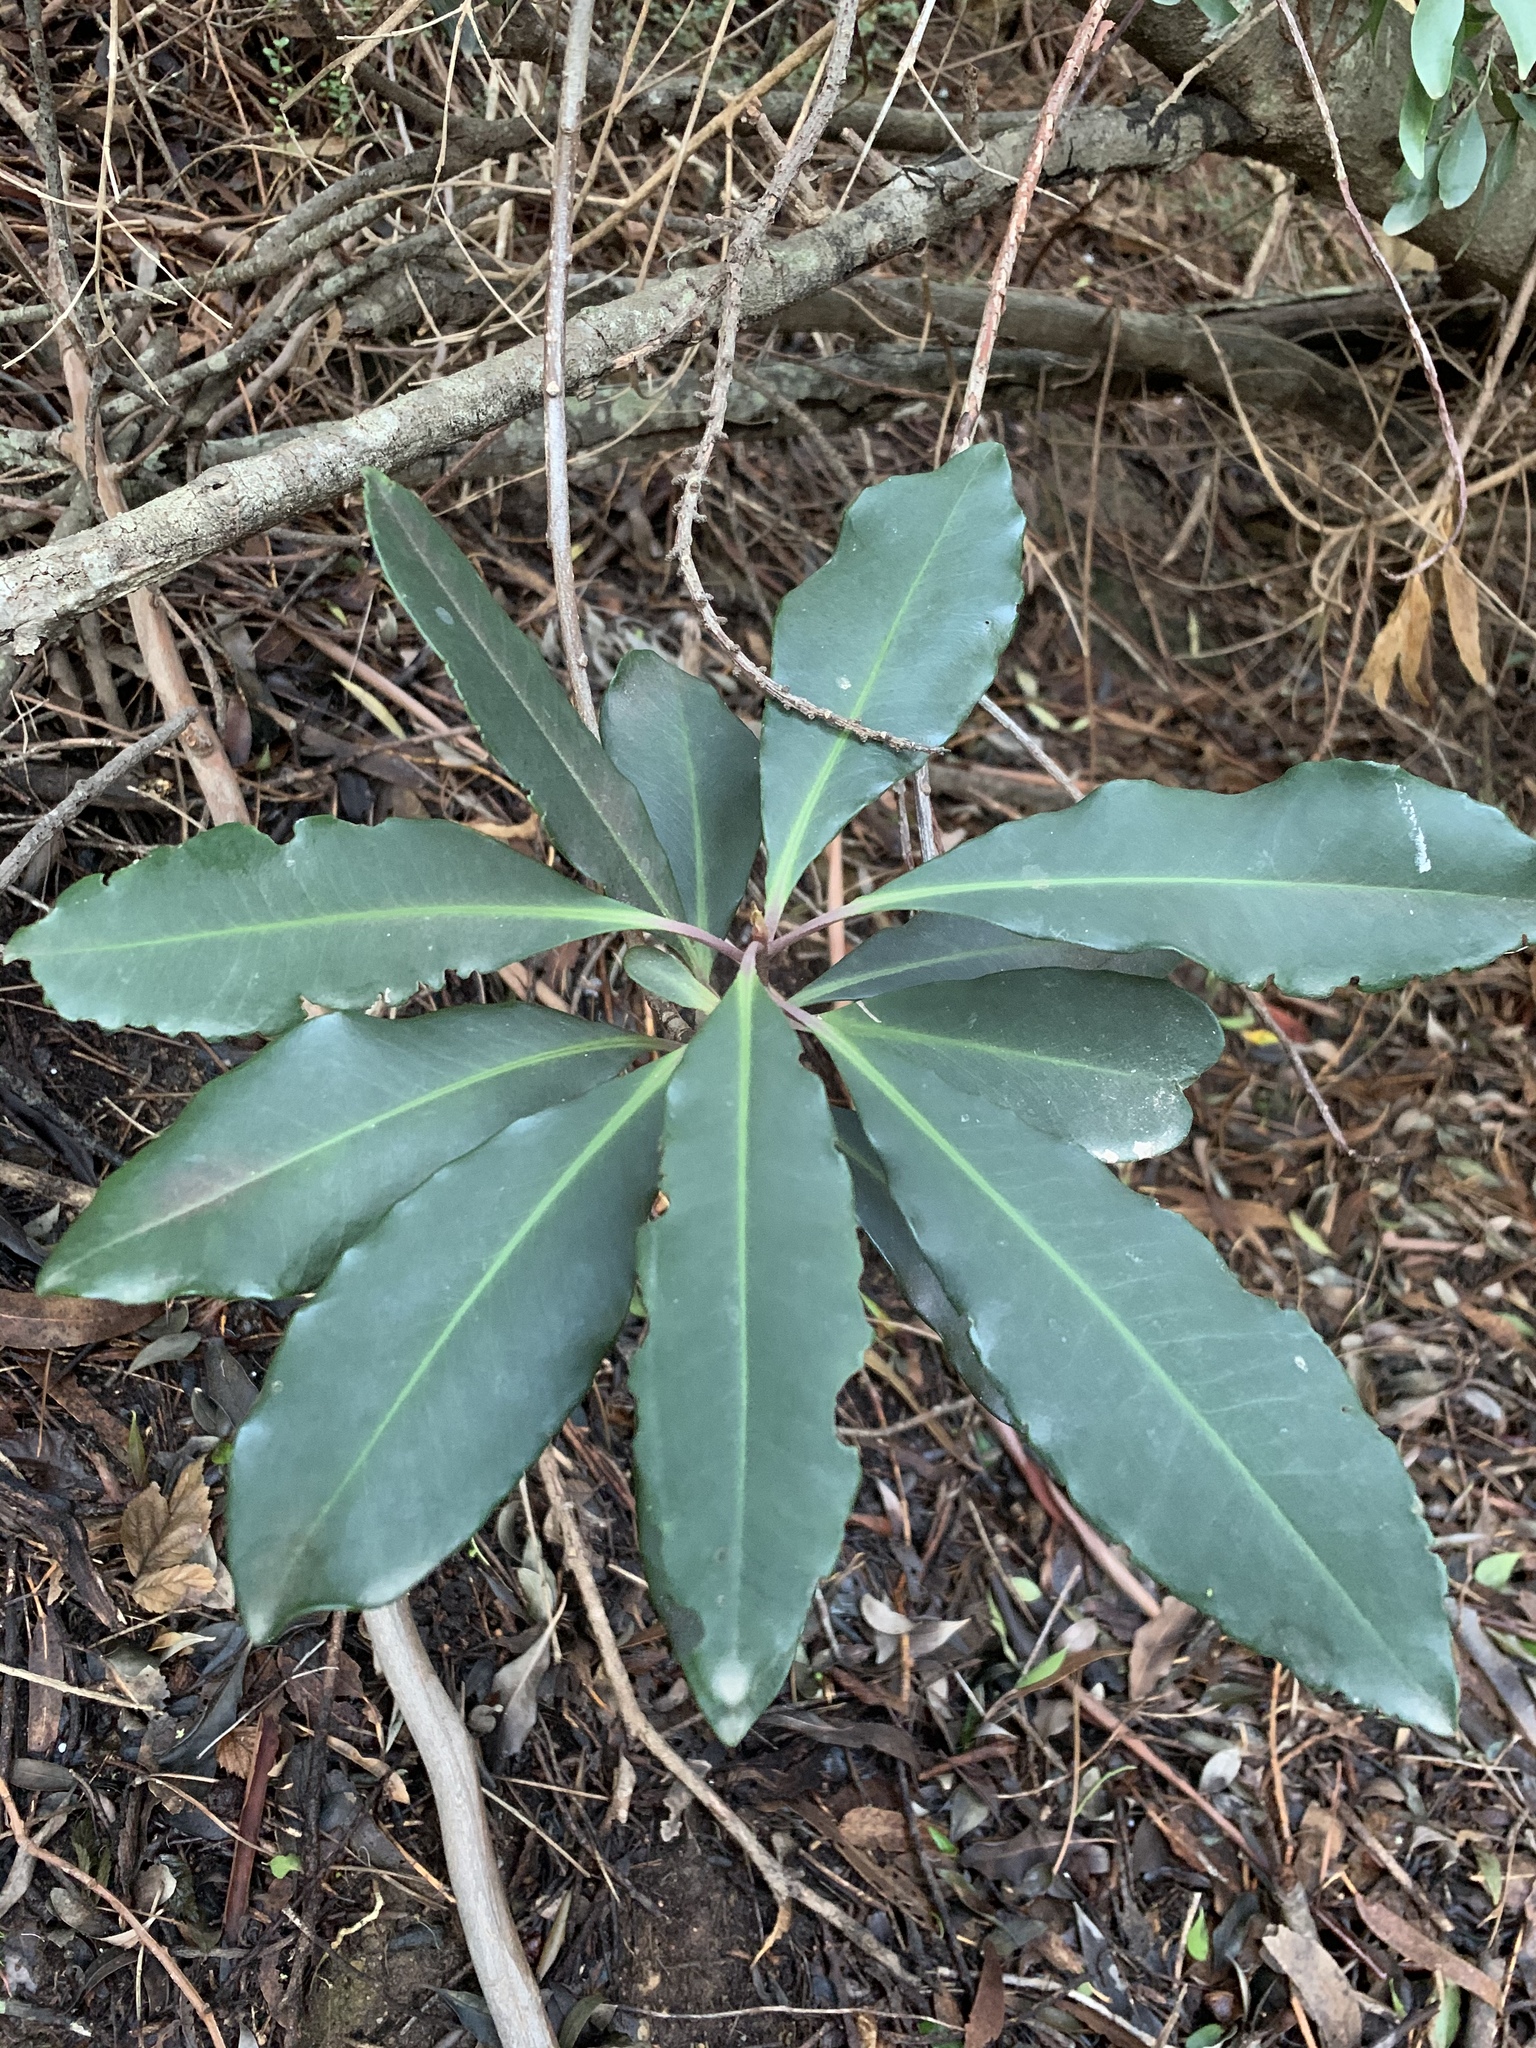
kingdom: Plantae
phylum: Tracheophyta
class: Magnoliopsida
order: Ericales
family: Primulaceae
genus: Myrsine
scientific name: Myrsine melanophloeos
